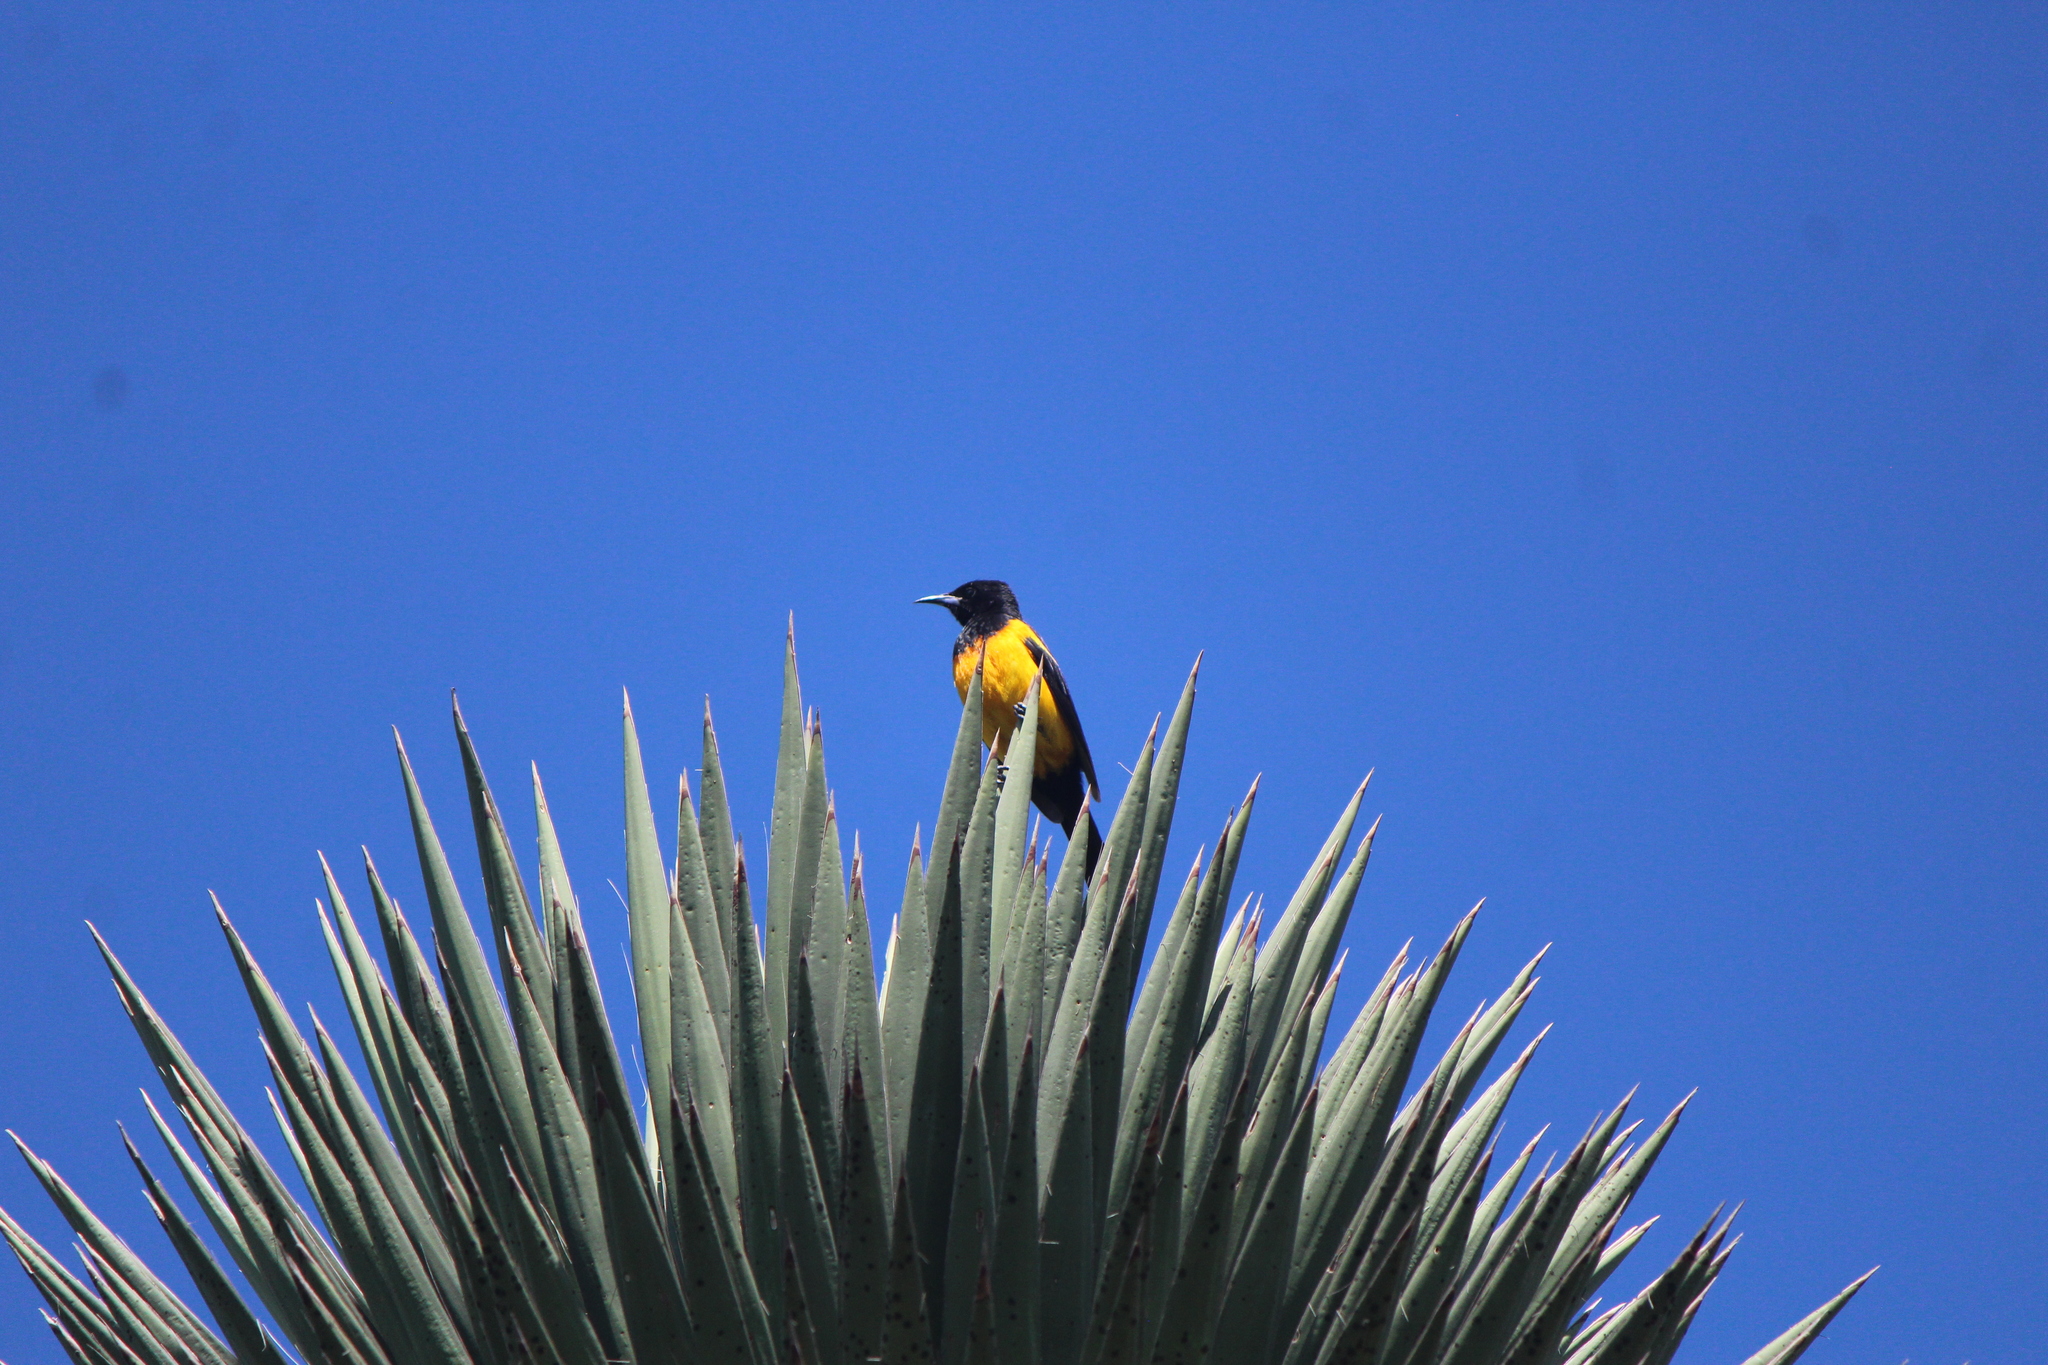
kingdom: Animalia
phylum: Chordata
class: Aves
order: Passeriformes
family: Icteridae
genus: Icterus
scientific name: Icterus wagleri
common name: Black-vented oriole
